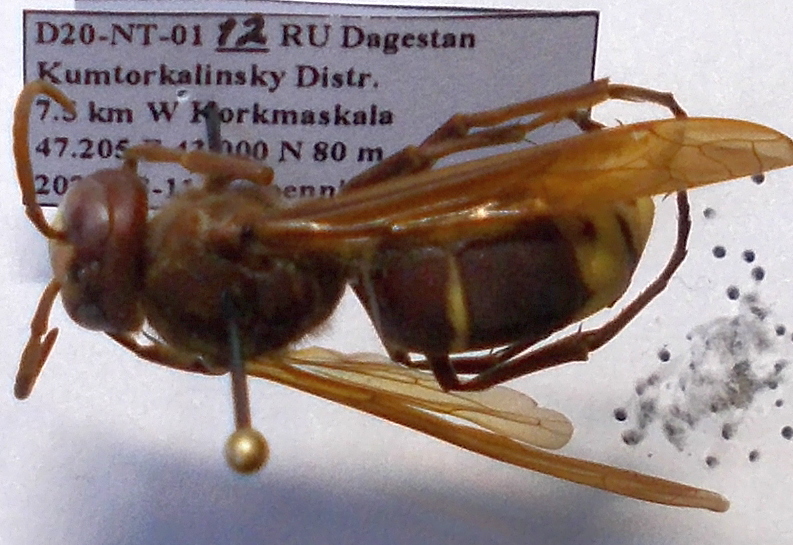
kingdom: Animalia
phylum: Arthropoda
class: Insecta
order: Hymenoptera
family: Vespidae
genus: Vespa
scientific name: Vespa orientalis
